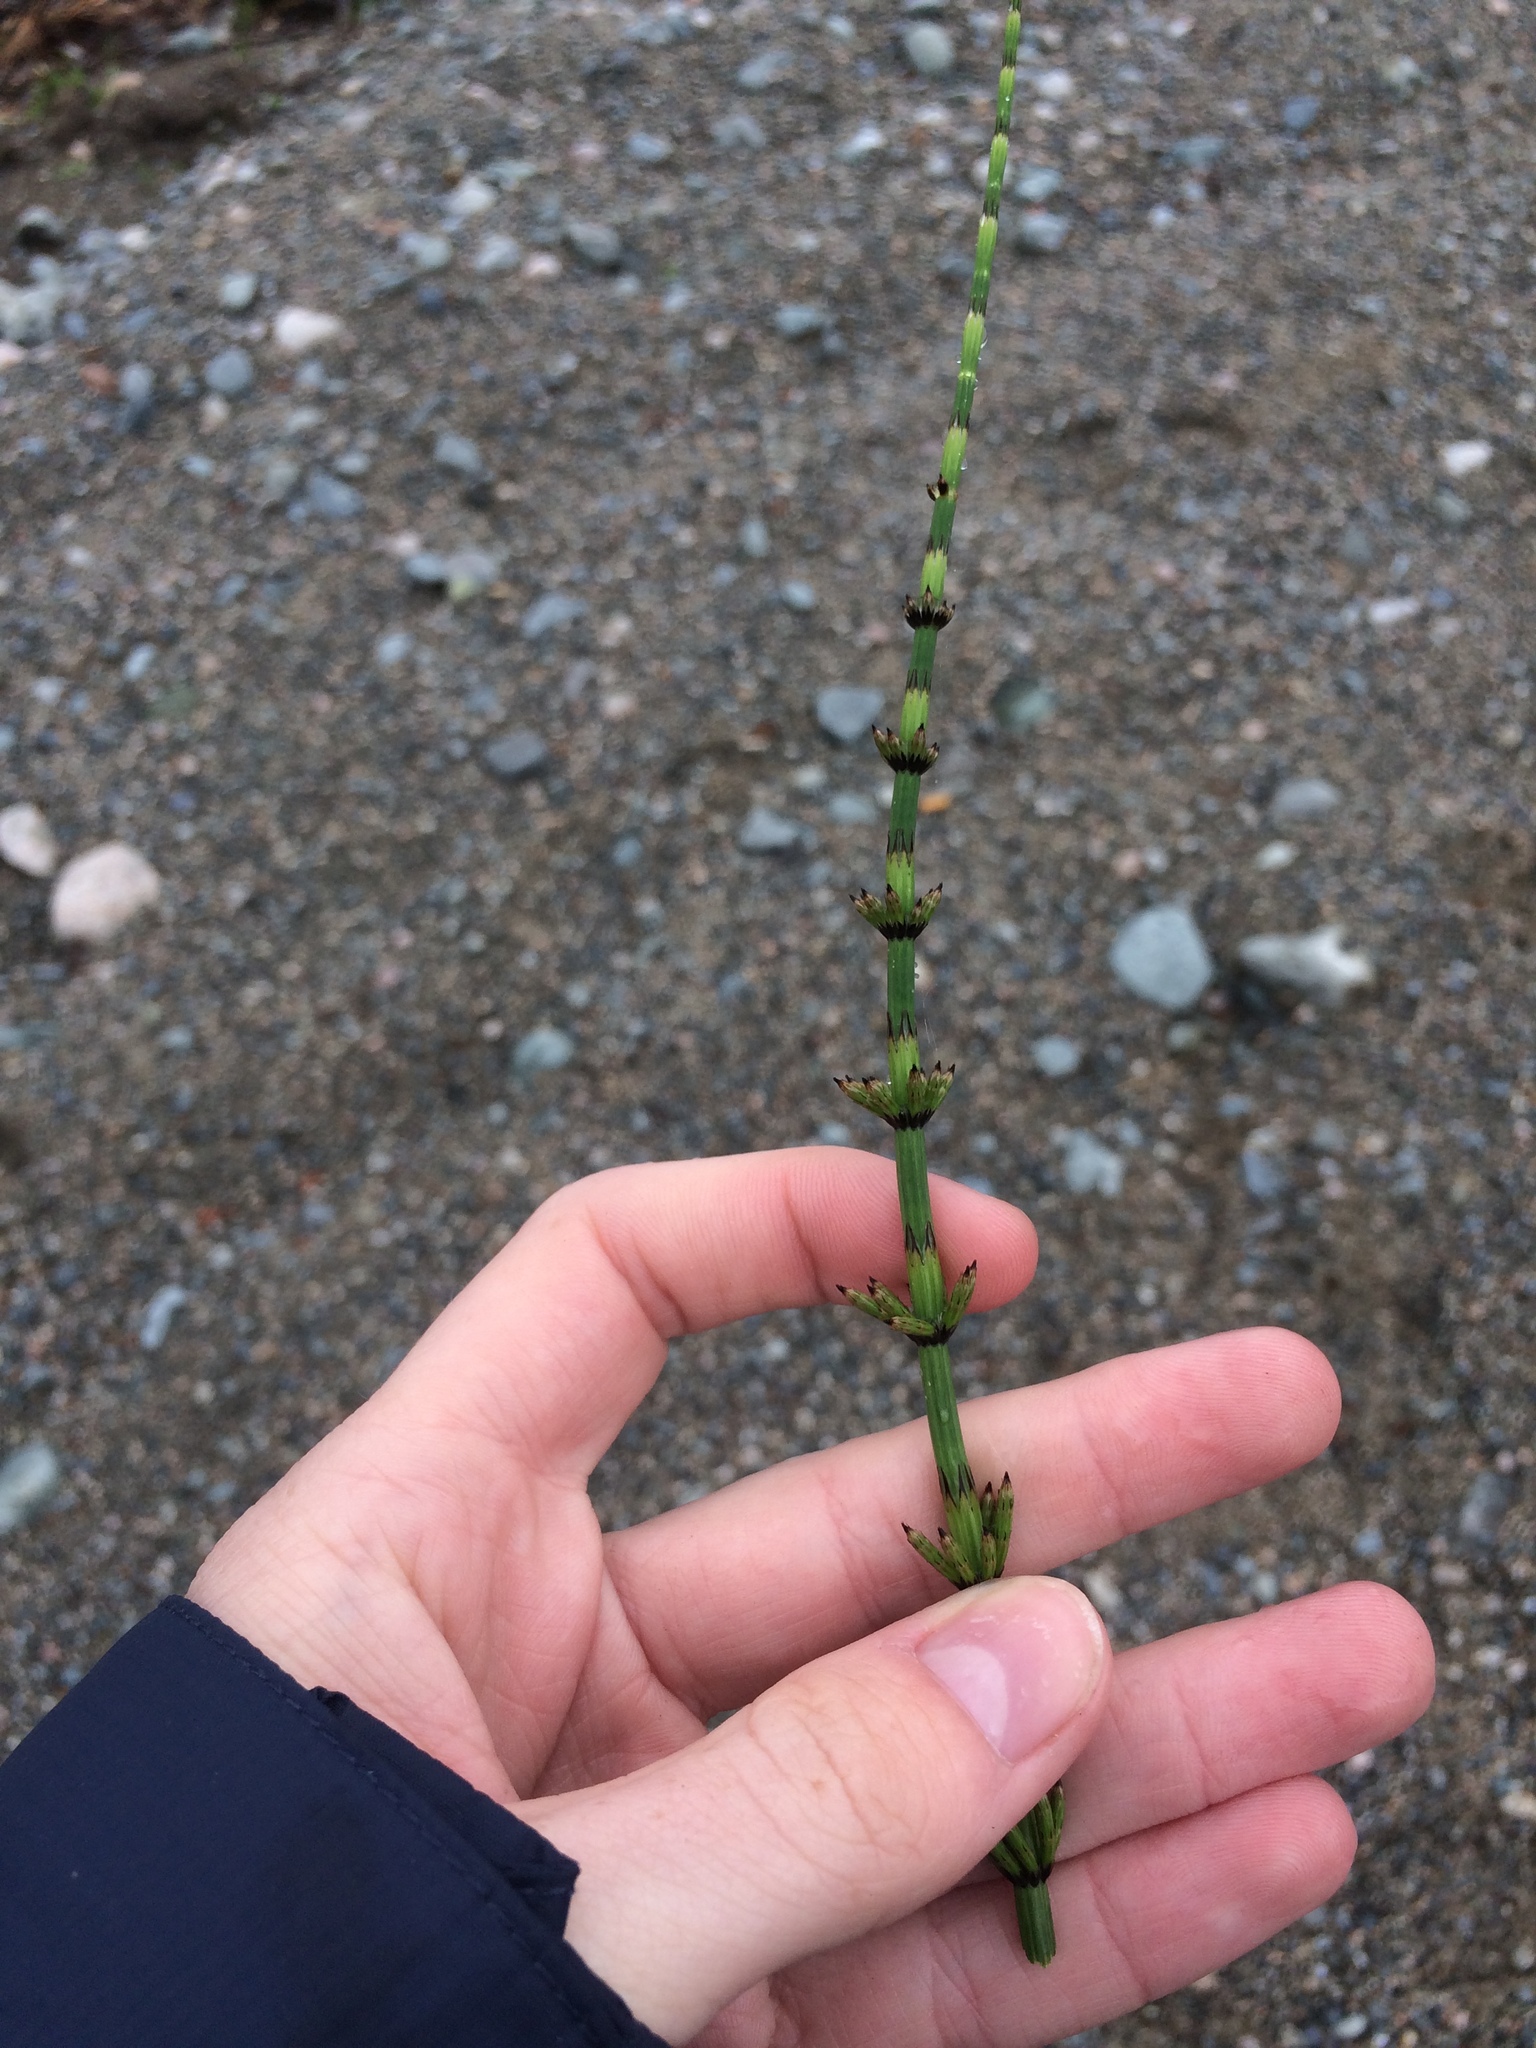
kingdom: Plantae
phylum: Tracheophyta
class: Polypodiopsida
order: Equisetales
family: Equisetaceae
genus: Equisetum
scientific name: Equisetum palustre
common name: Marsh horsetail
